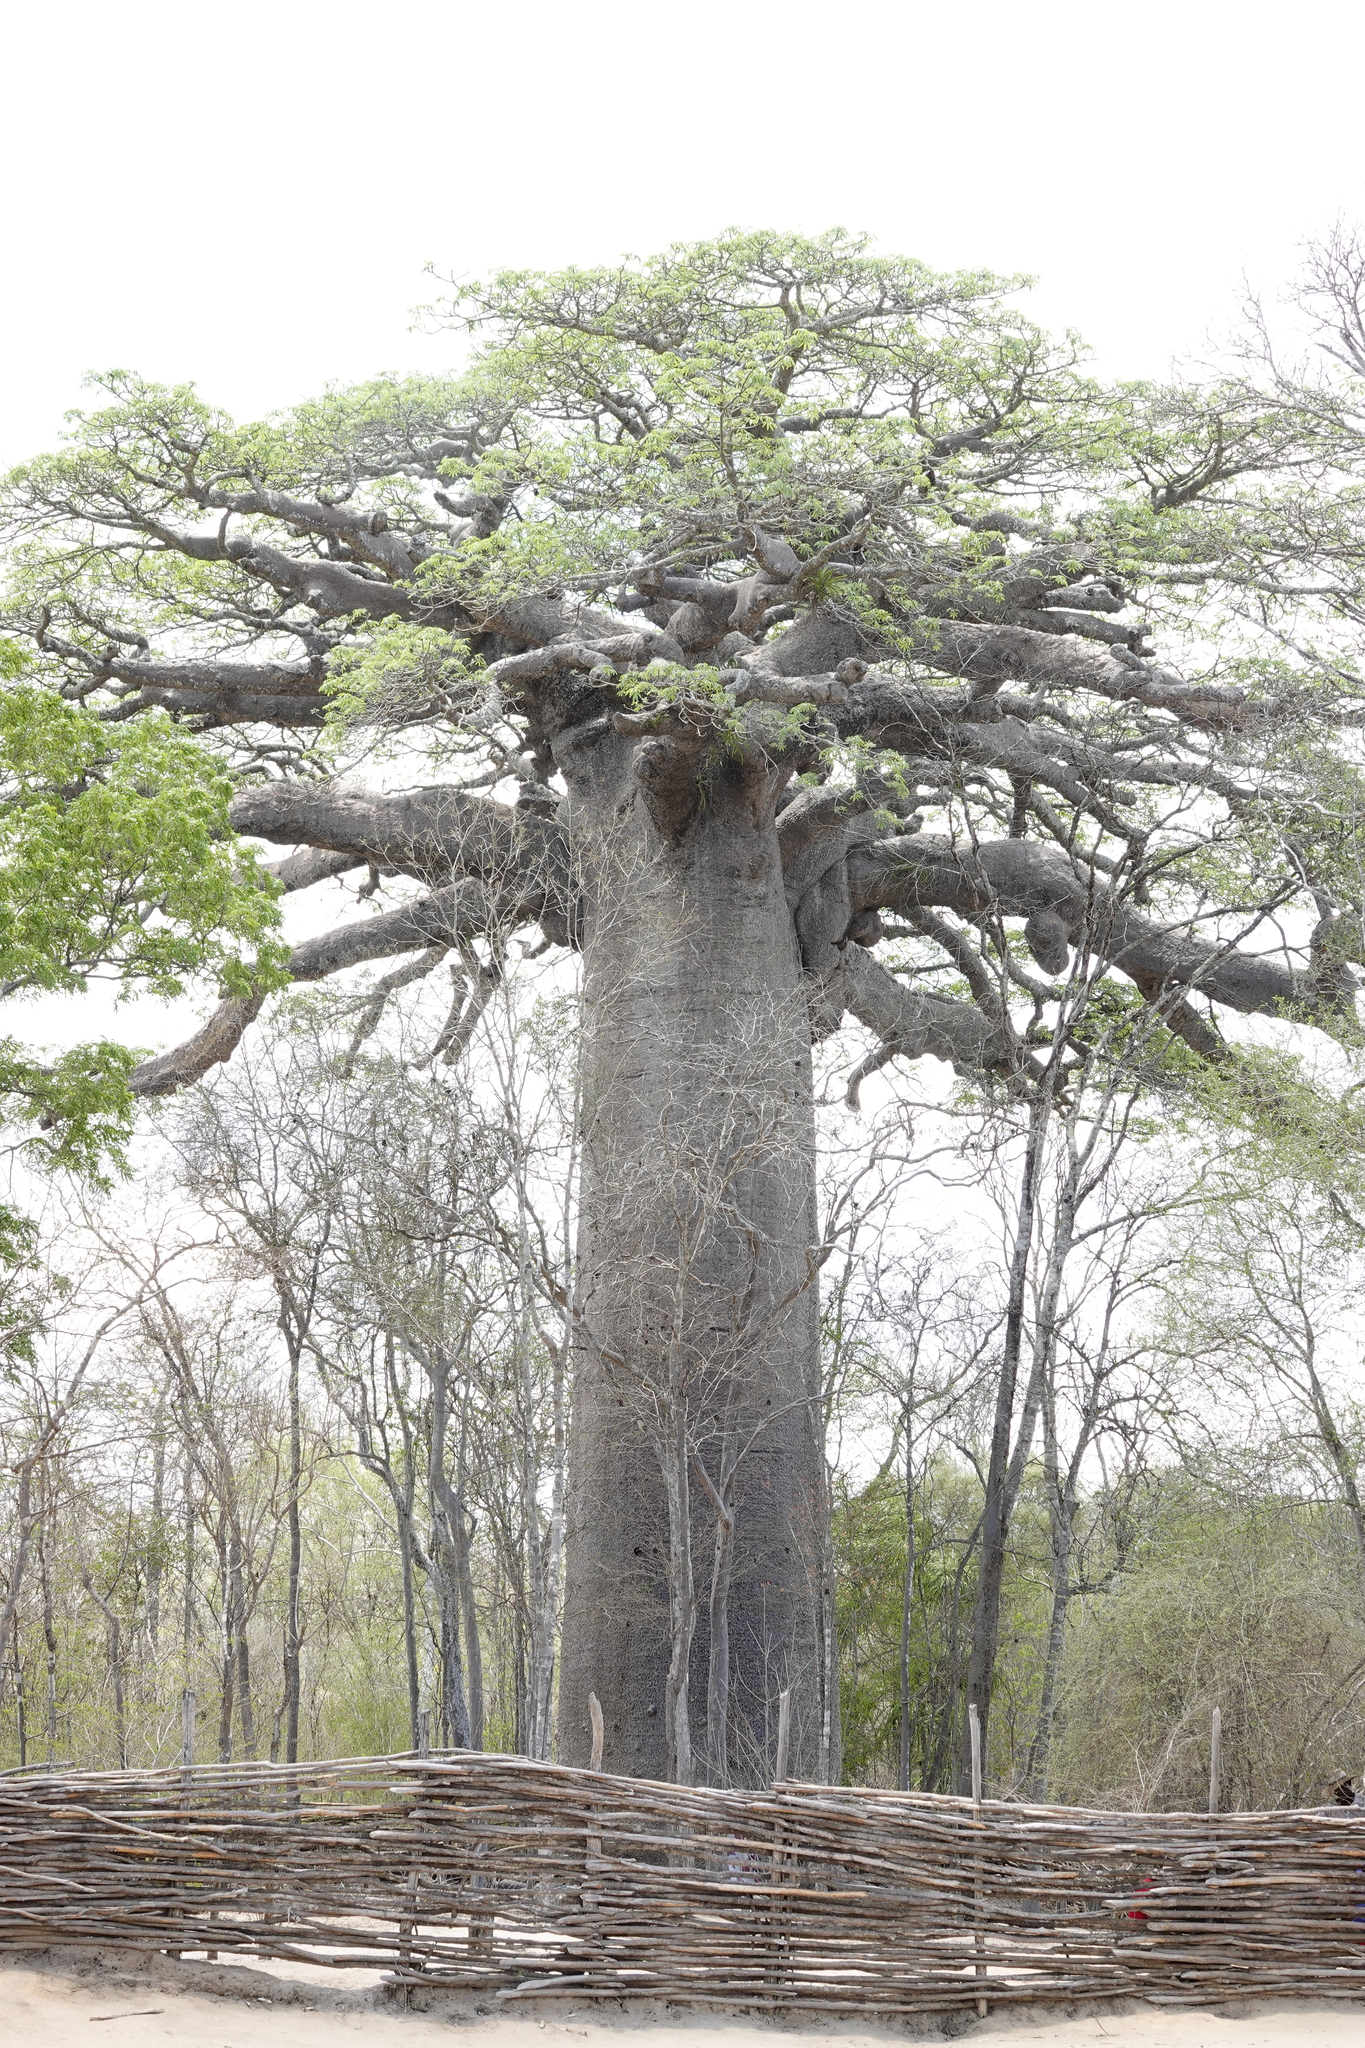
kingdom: Plantae
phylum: Tracheophyta
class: Magnoliopsida
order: Malvales
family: Malvaceae
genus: Adansonia
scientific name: Adansonia grandidieri
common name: Grandidier's baobab
